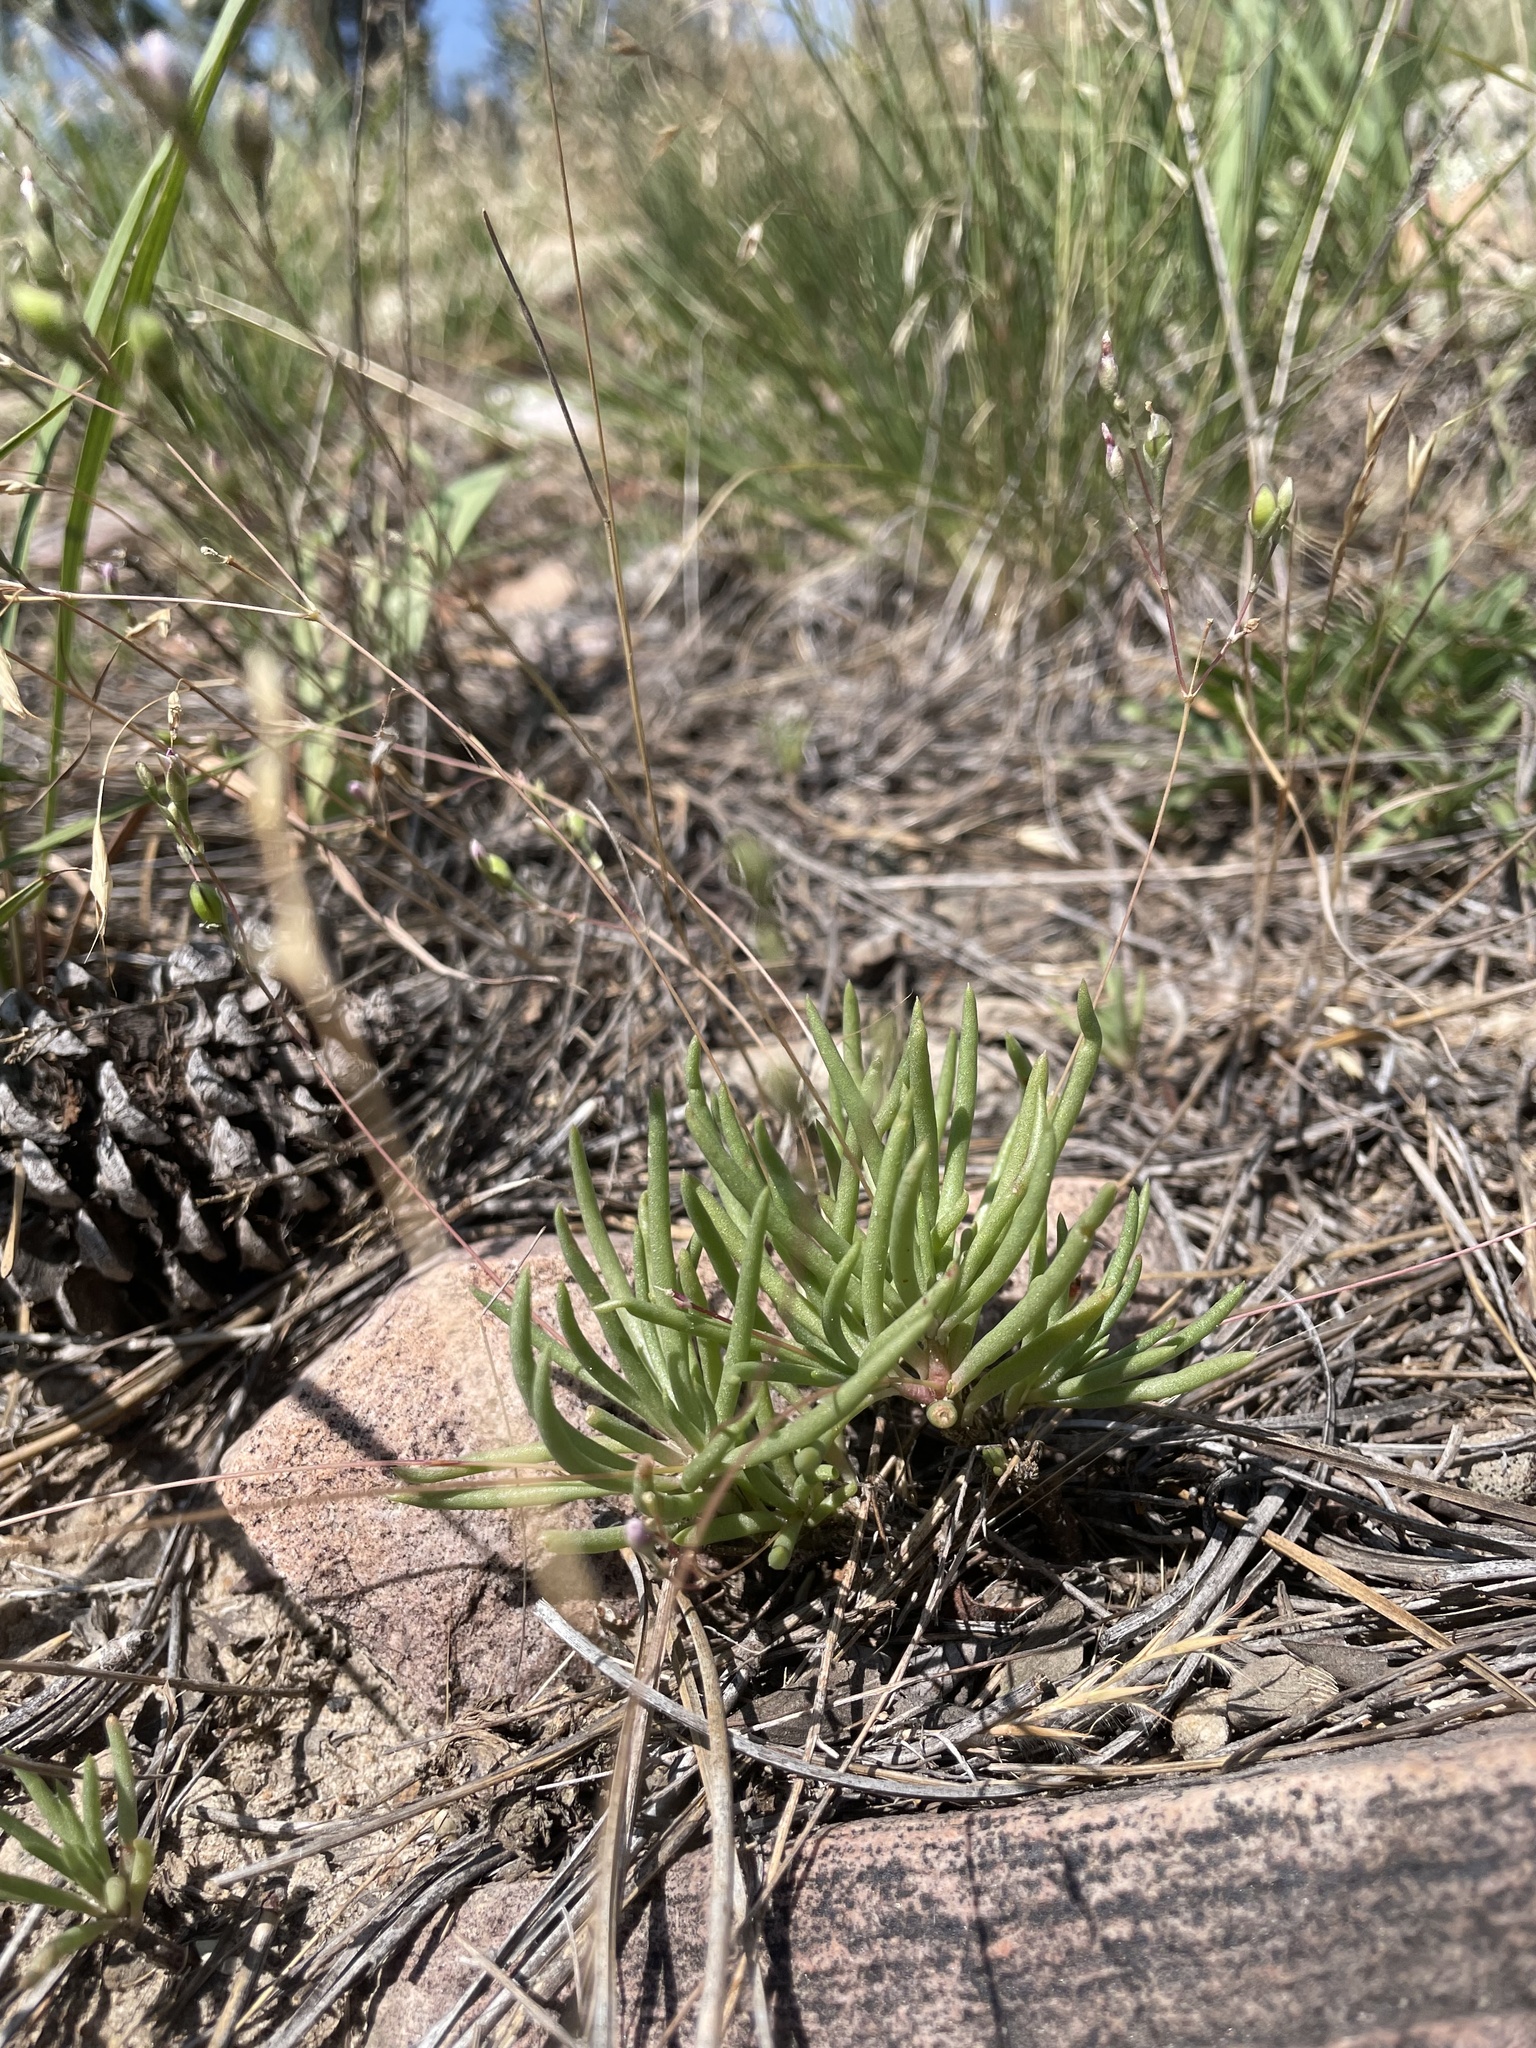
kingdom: Plantae
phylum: Tracheophyta
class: Magnoliopsida
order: Caryophyllales
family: Montiaceae
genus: Phemeranthus
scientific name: Phemeranthus confertiflorus
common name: New mexico fameflower
